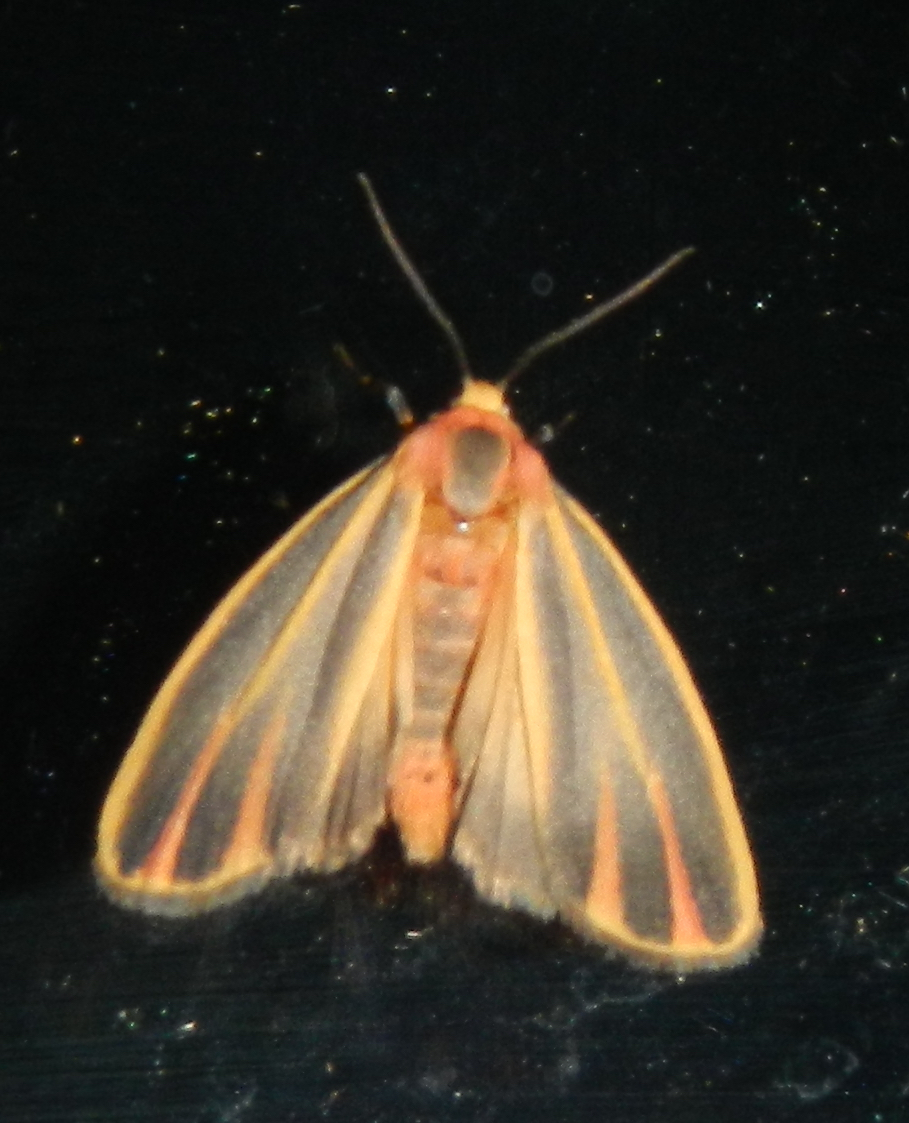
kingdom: Animalia
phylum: Arthropoda
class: Insecta
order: Lepidoptera
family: Erebidae
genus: Hypoprepia
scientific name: Hypoprepia fucosa
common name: Painted lichen moth
